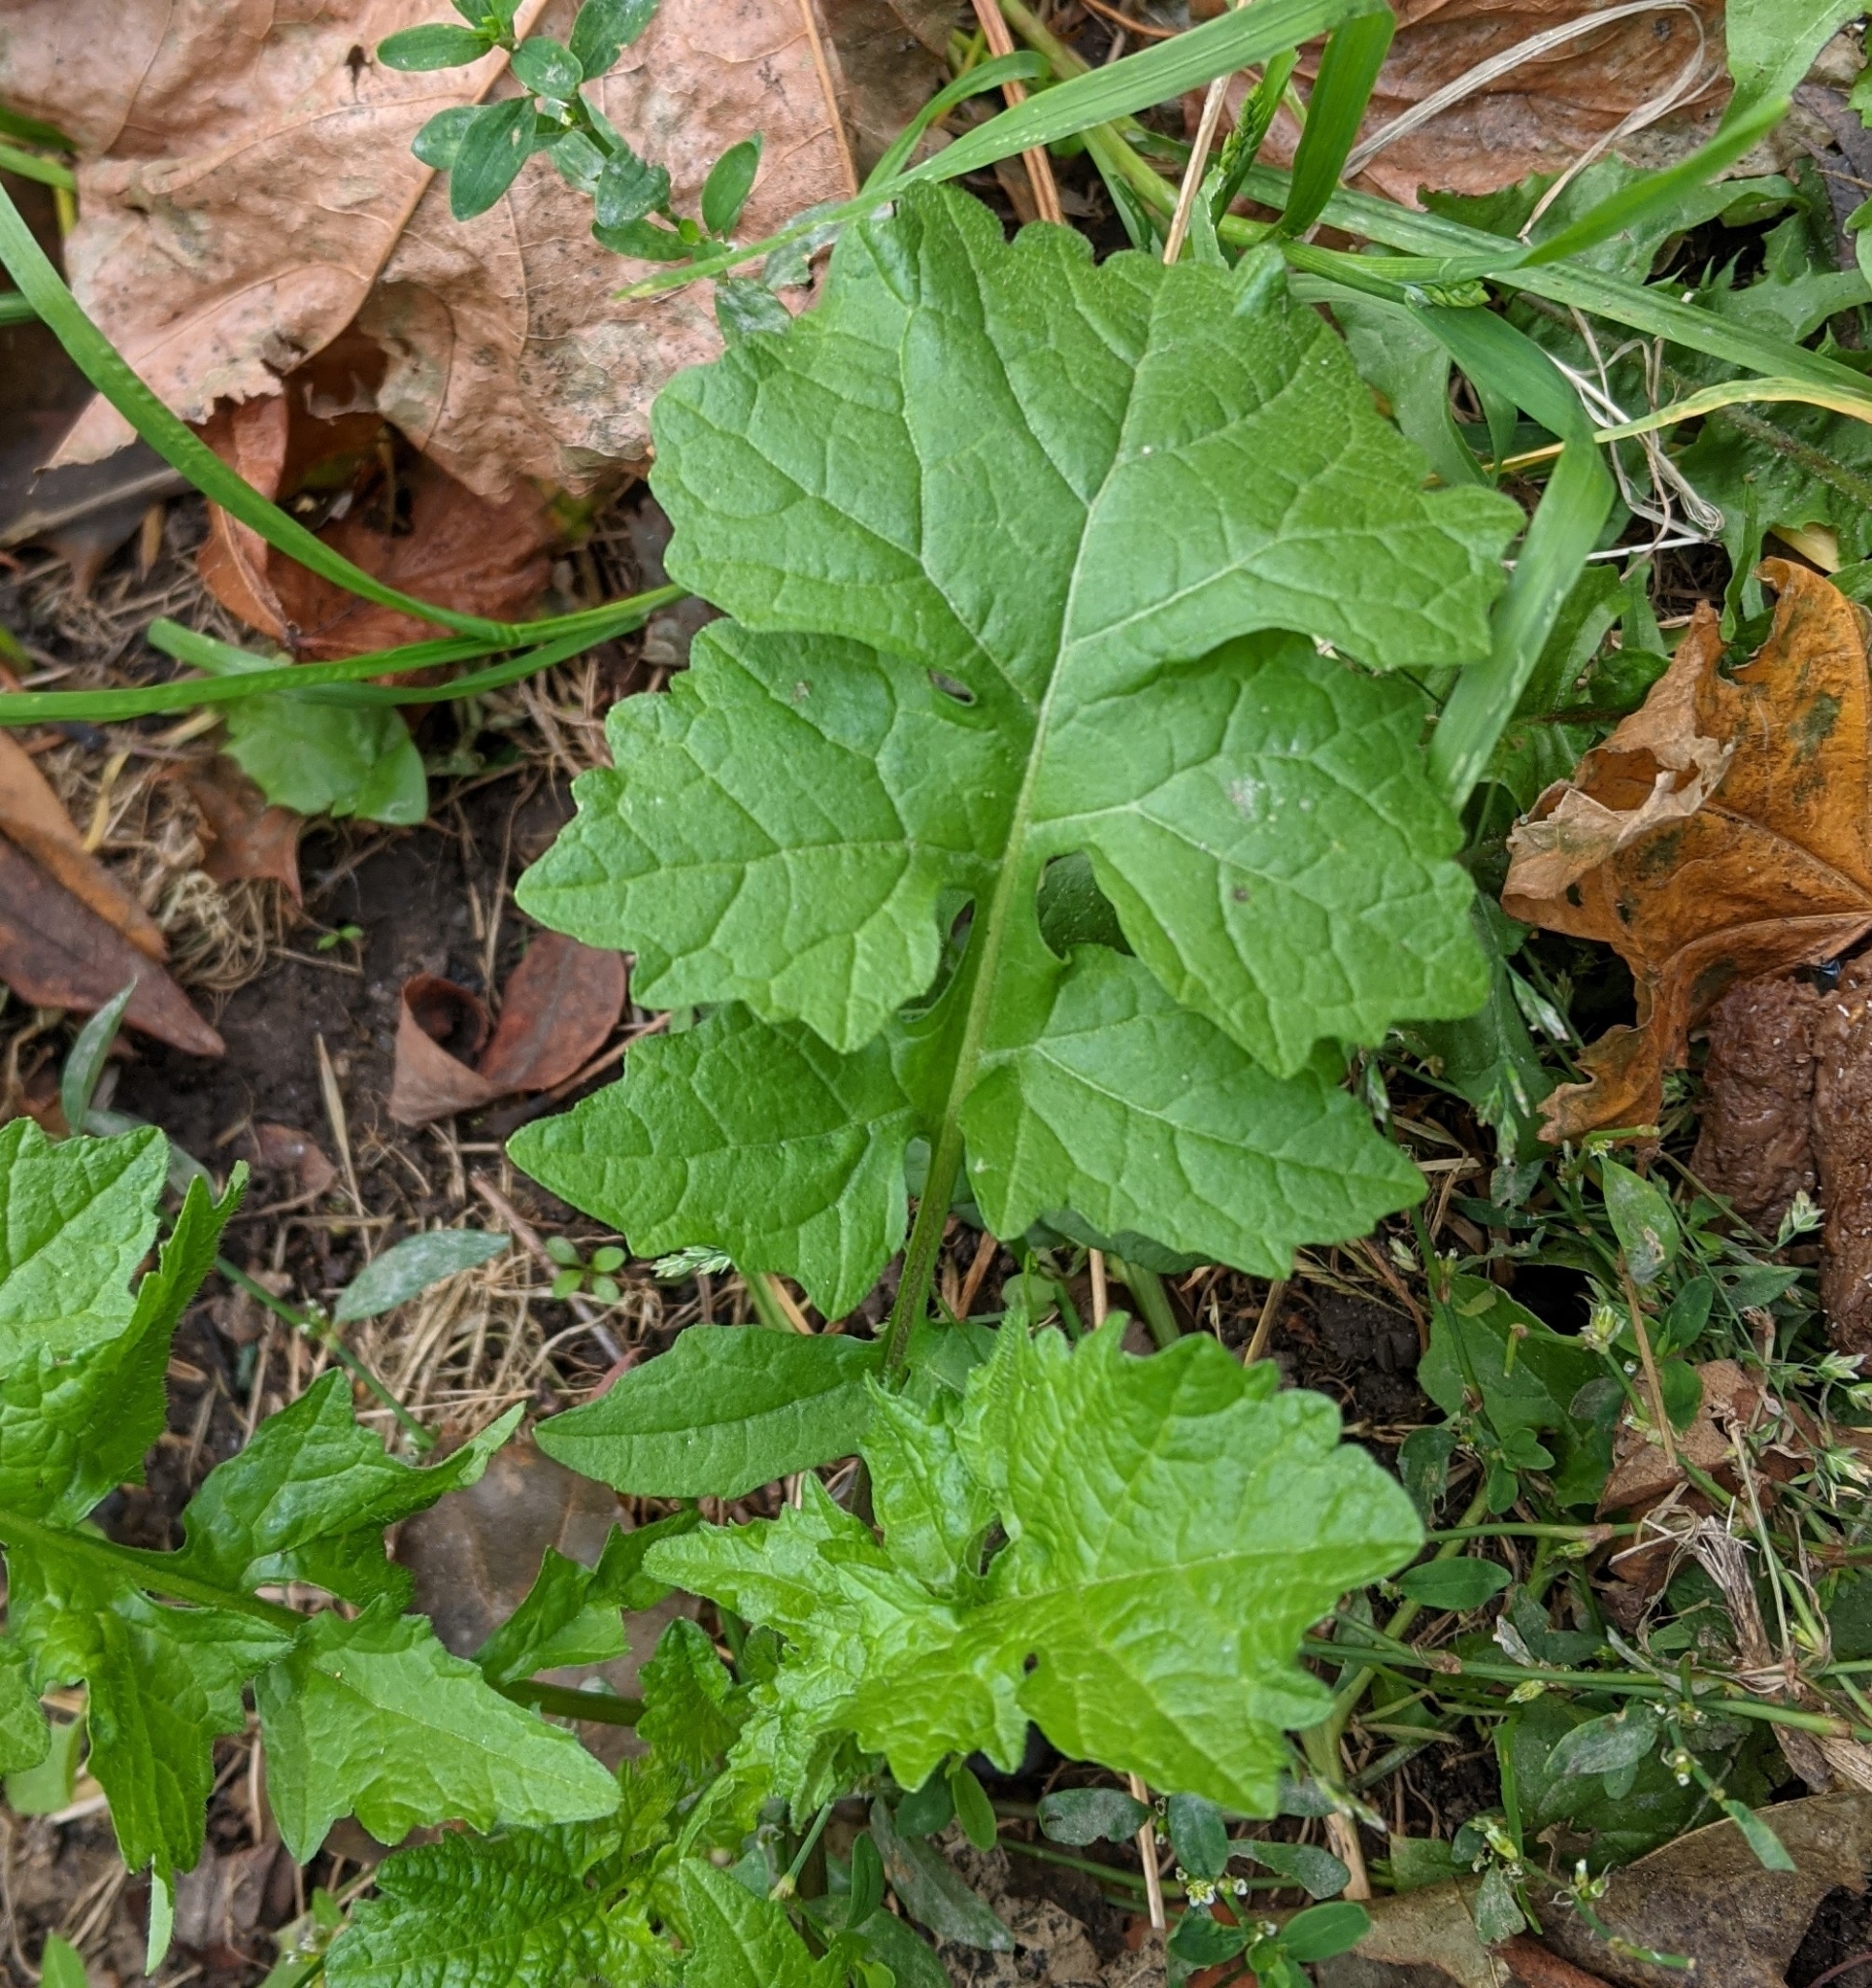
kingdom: Plantae
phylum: Tracheophyta
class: Magnoliopsida
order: Brassicales
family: Brassicaceae
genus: Sisymbrium
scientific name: Sisymbrium officinale
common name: Hedge mustard
